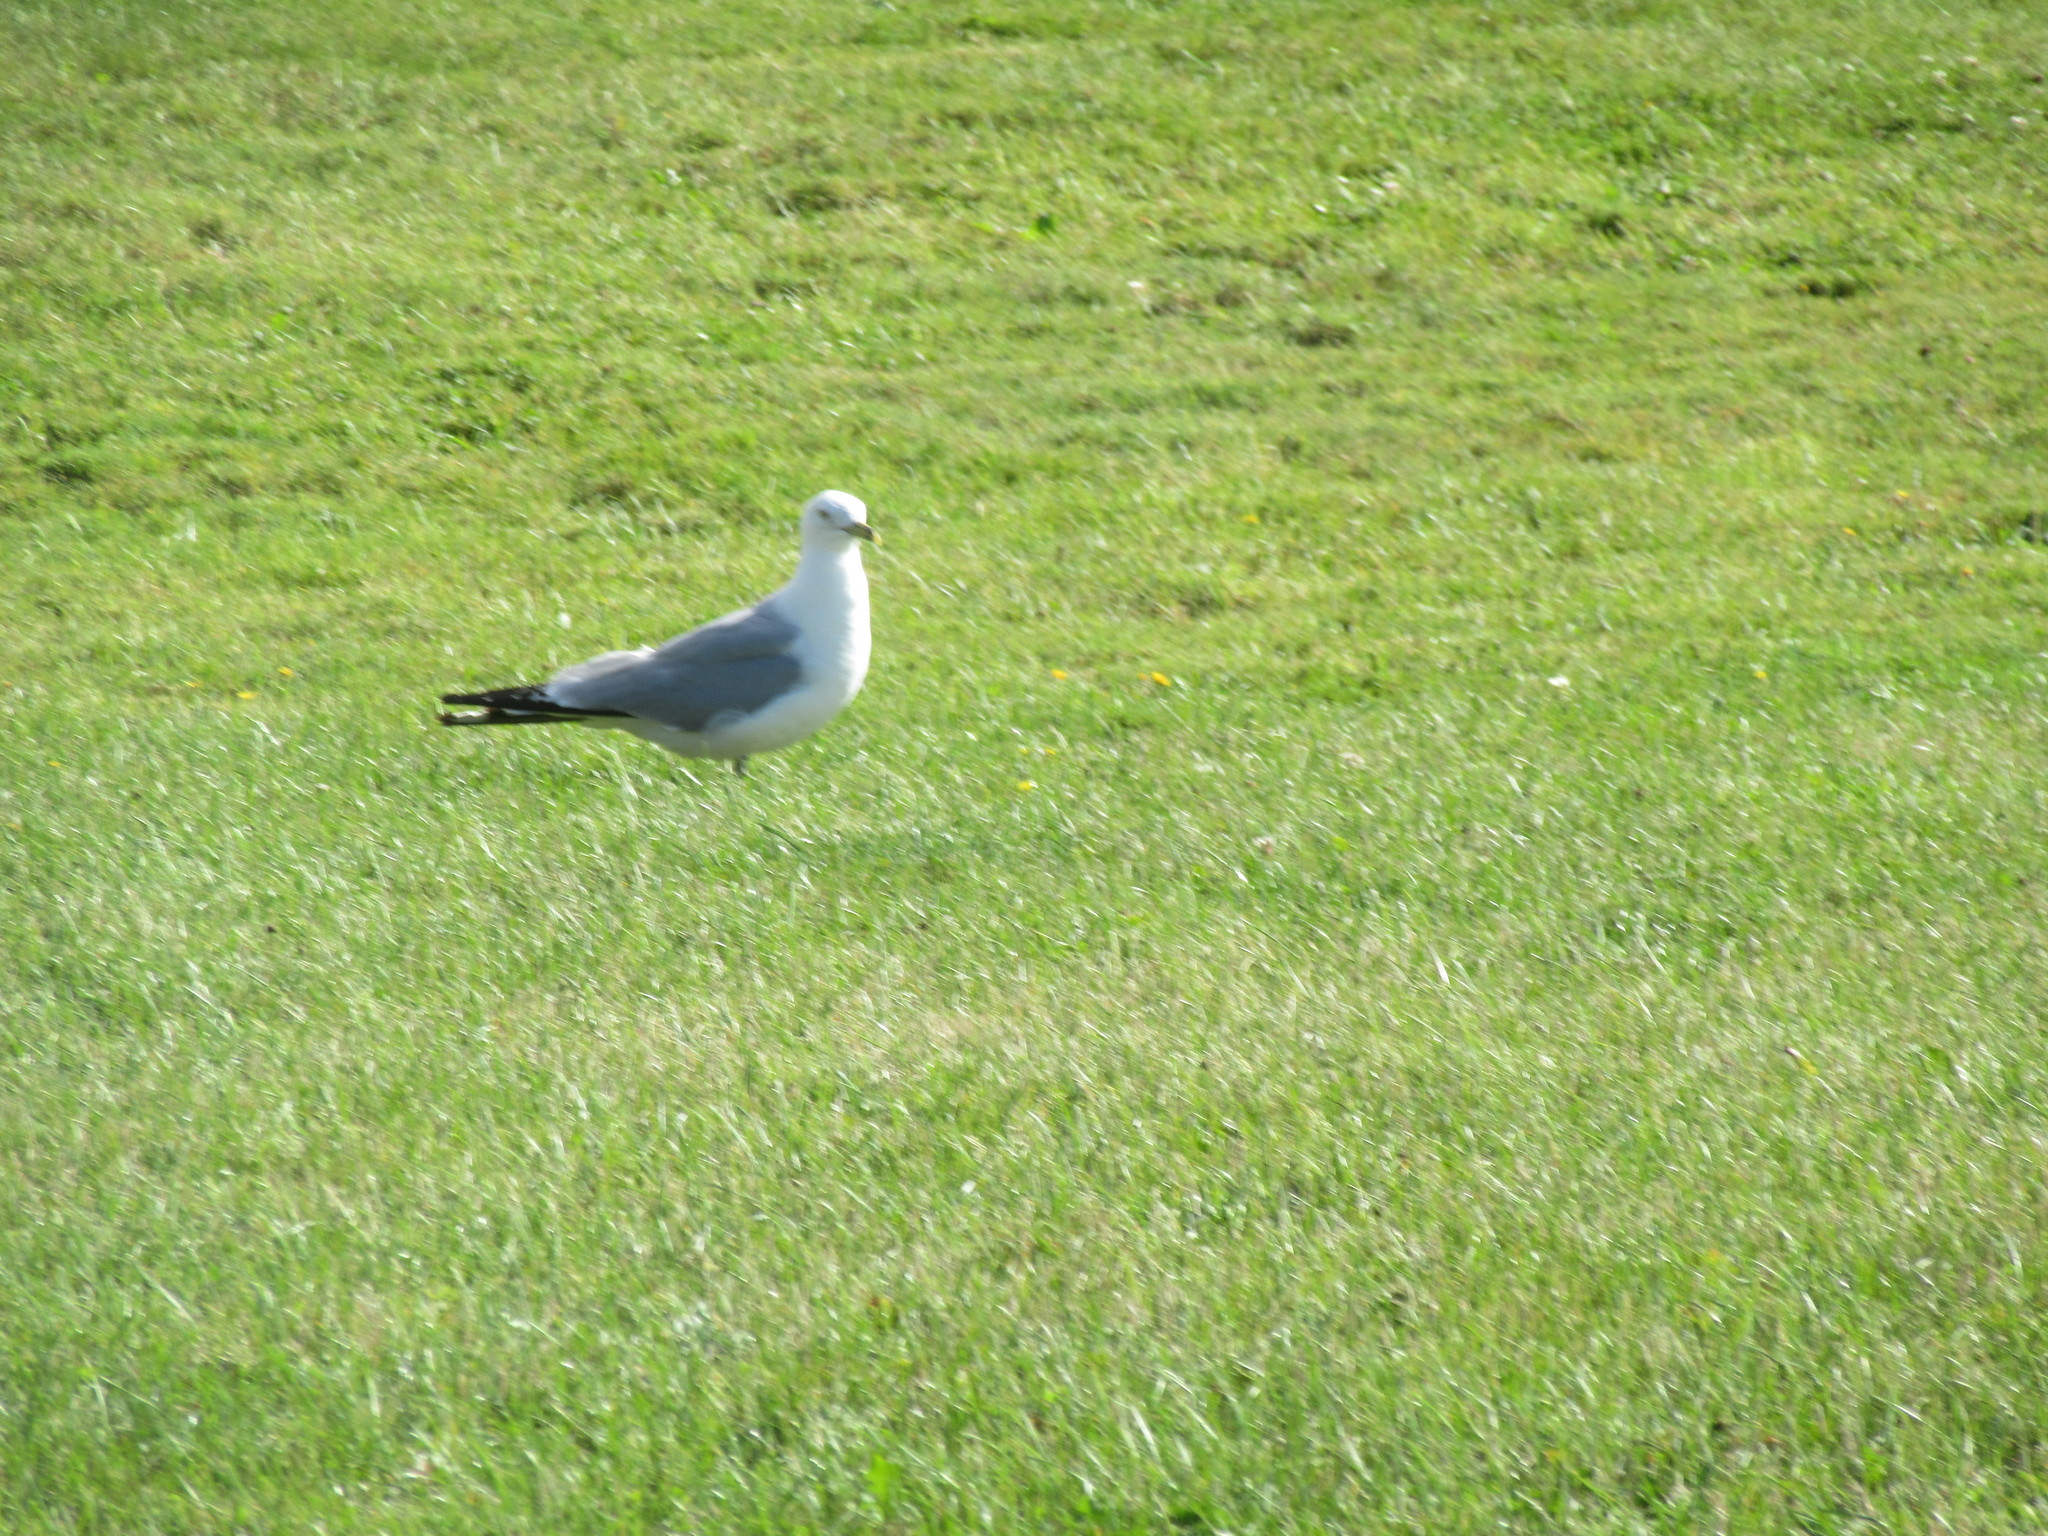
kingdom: Animalia
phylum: Chordata
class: Aves
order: Charadriiformes
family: Laridae
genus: Larus
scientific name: Larus delawarensis
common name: Ring-billed gull
